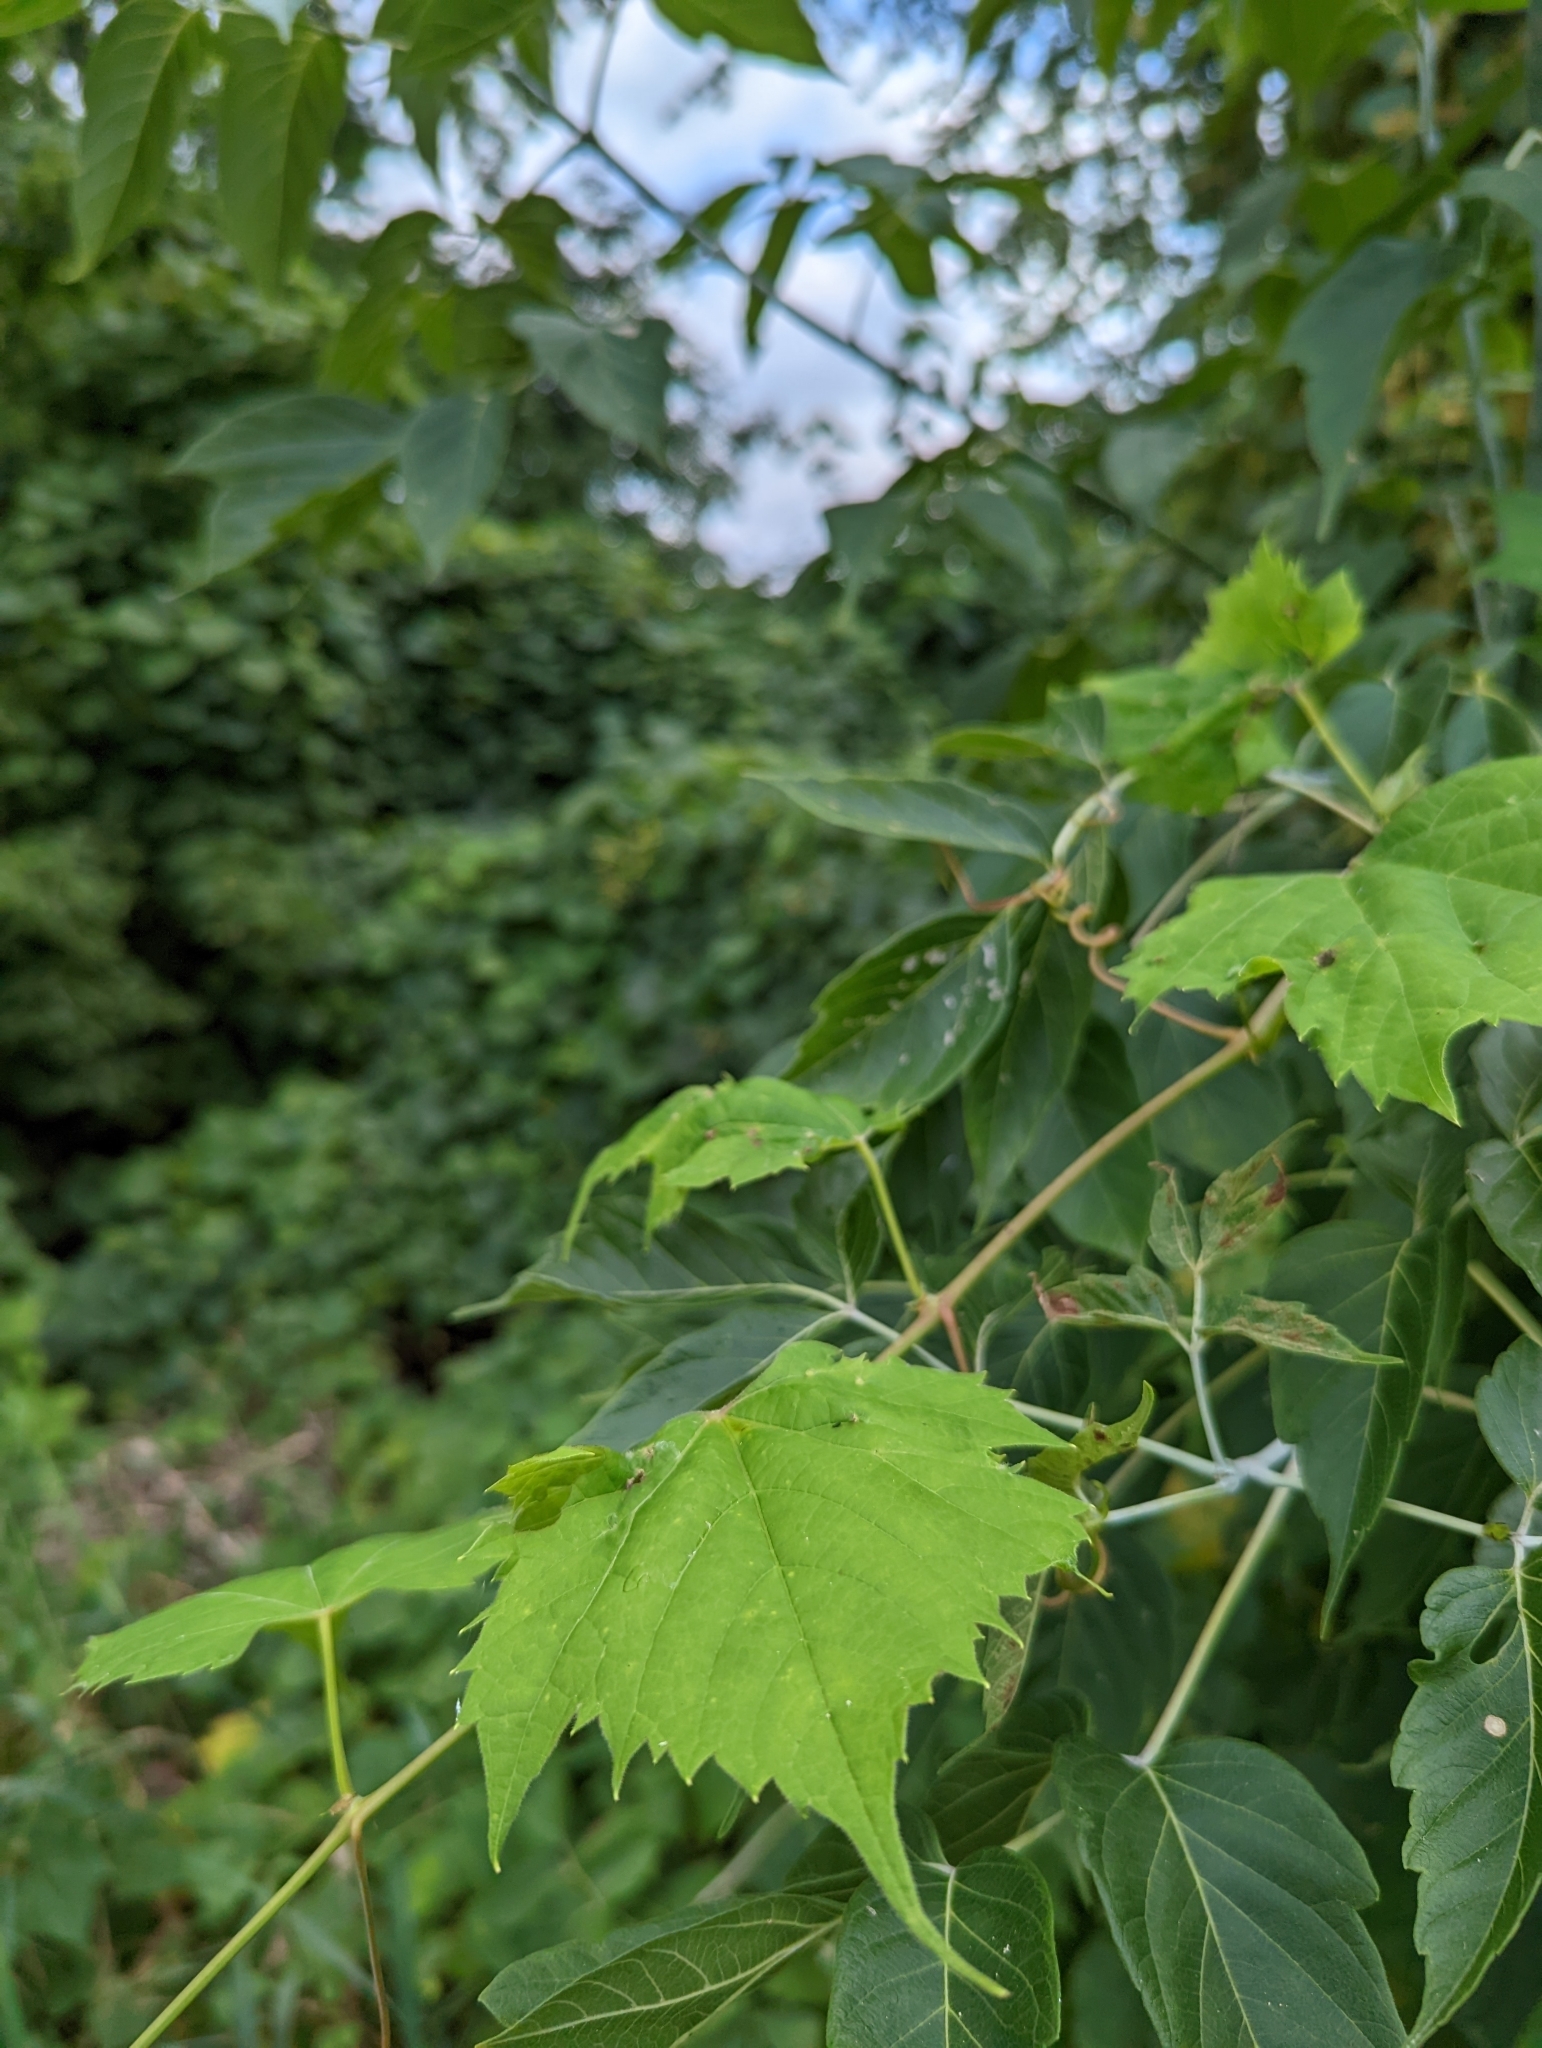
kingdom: Animalia
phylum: Arthropoda
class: Insecta
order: Hemiptera
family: Phylloxeridae
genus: Daktulosphaira
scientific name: Daktulosphaira vitifoliae
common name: Grape phylloxera
